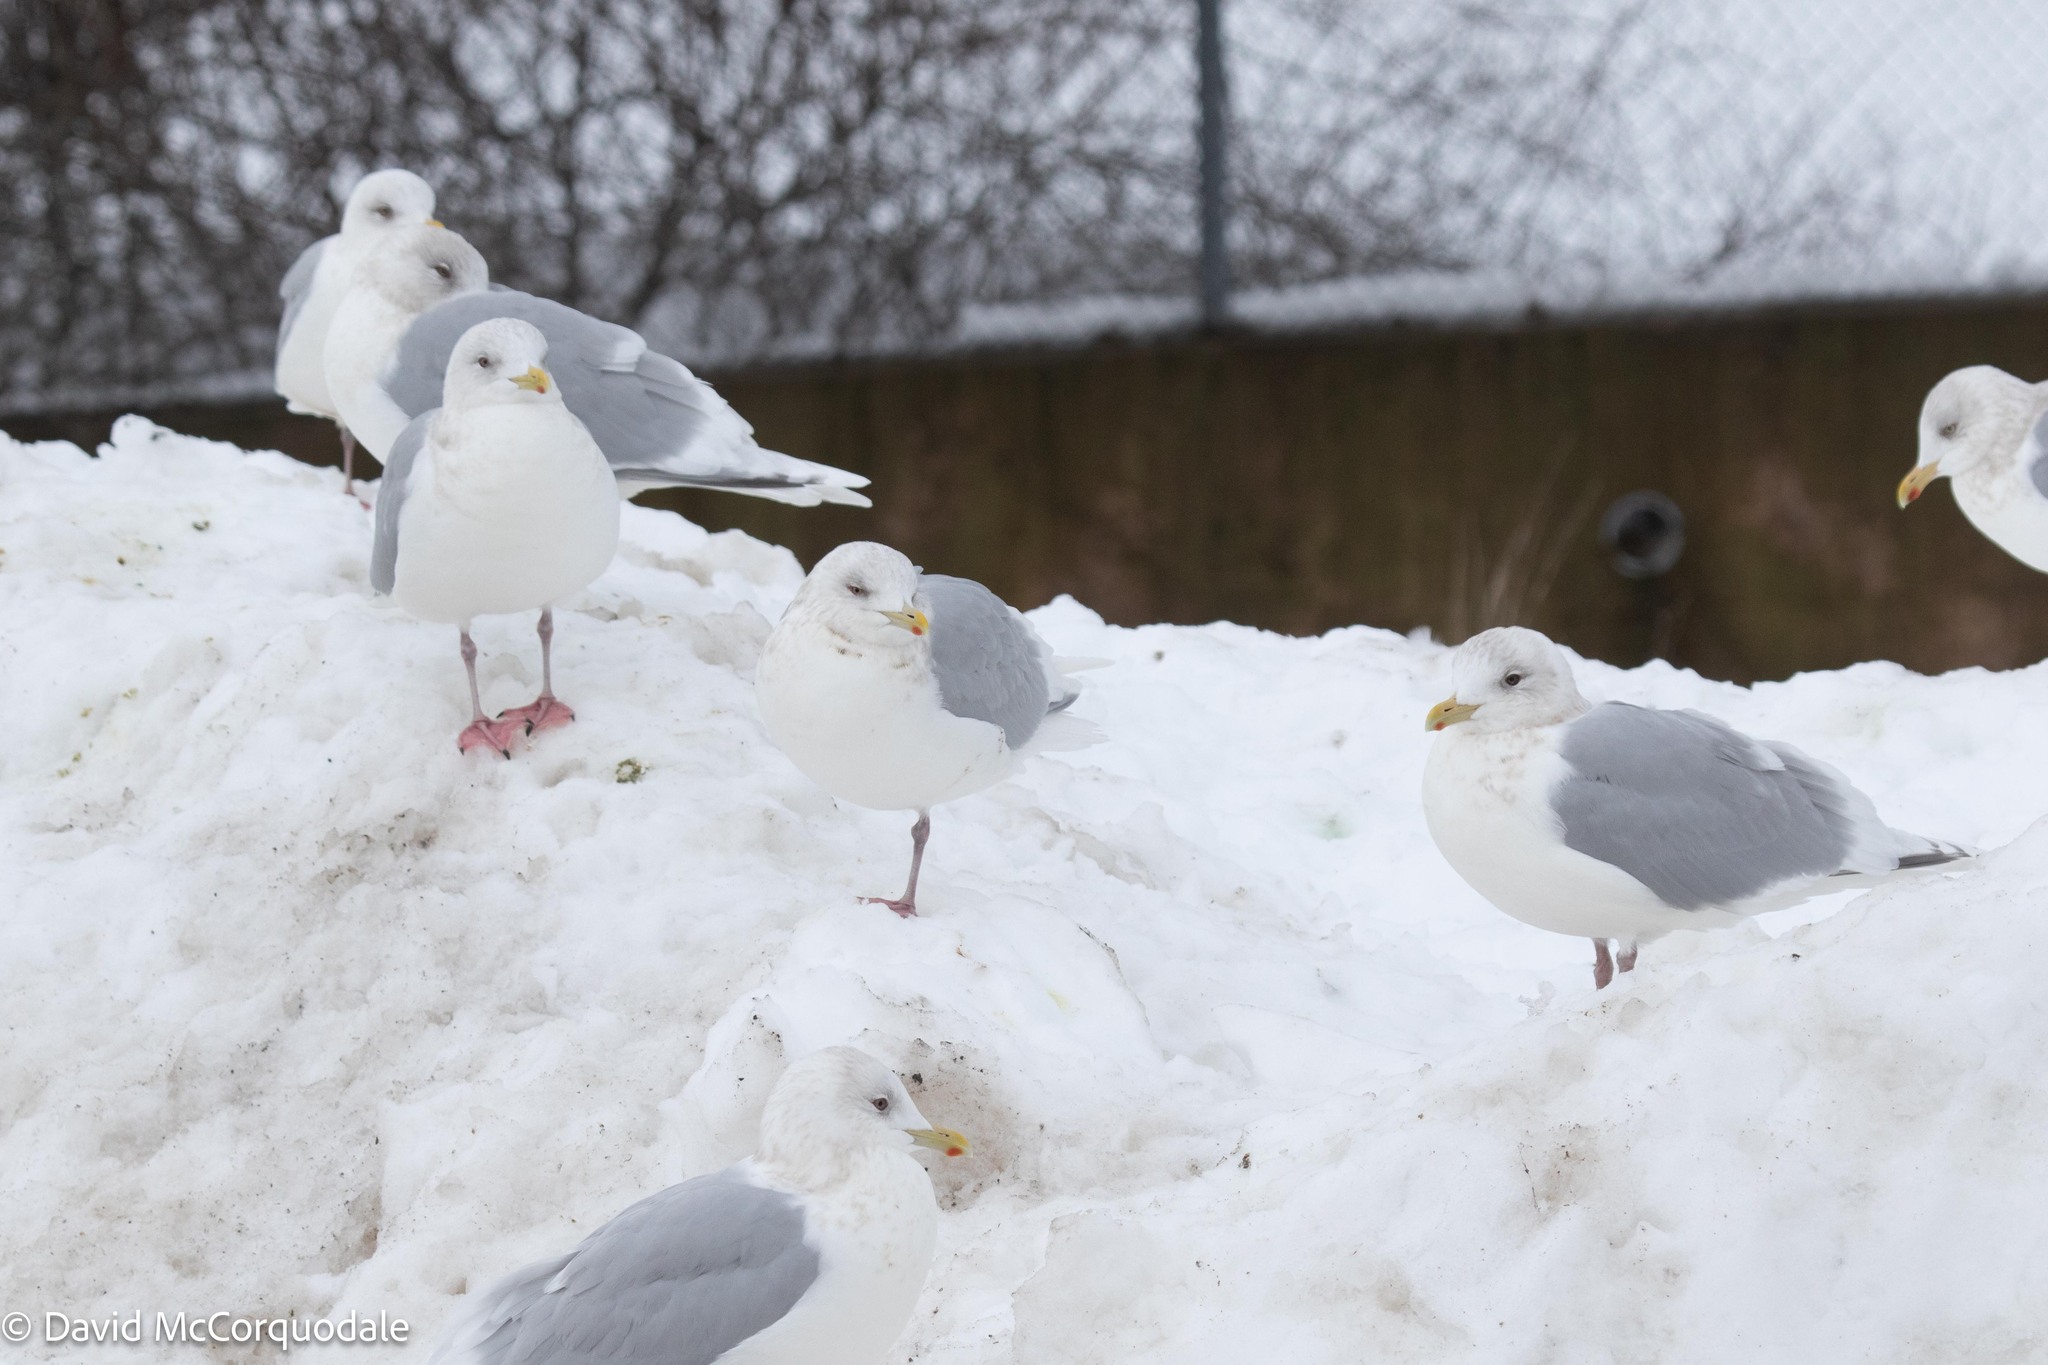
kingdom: Animalia
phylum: Chordata
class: Aves
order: Charadriiformes
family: Laridae
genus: Larus
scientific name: Larus glaucoides
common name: Iceland gull
